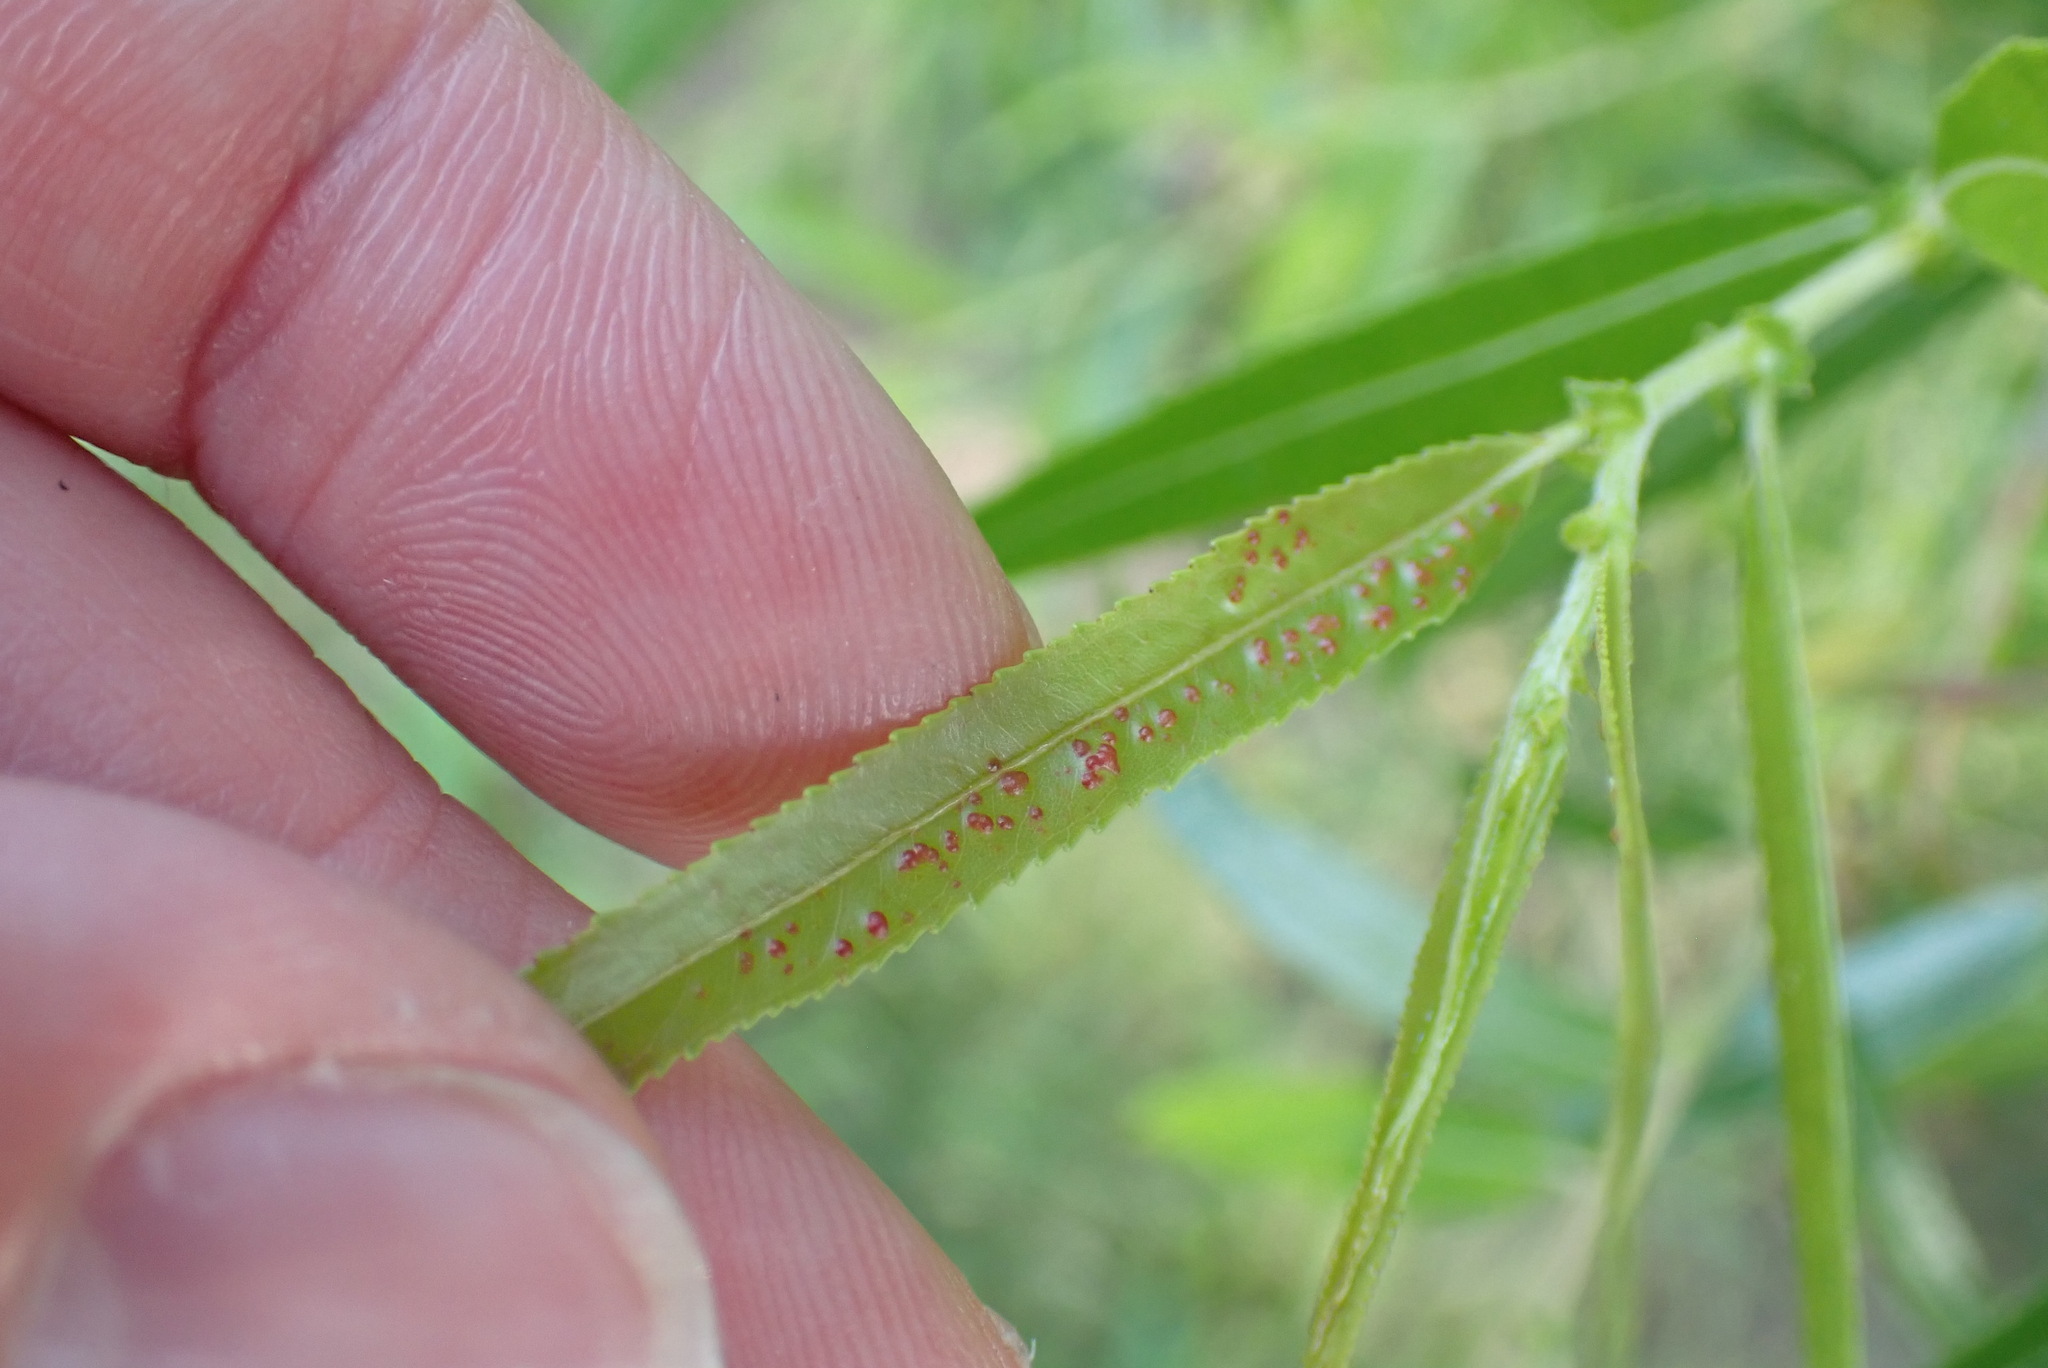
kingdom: Animalia
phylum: Arthropoda
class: Arachnida
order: Trombidiformes
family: Eriophyidae
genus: Aculus
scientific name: Aculus tetanothrix
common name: Willow bead gall mite
